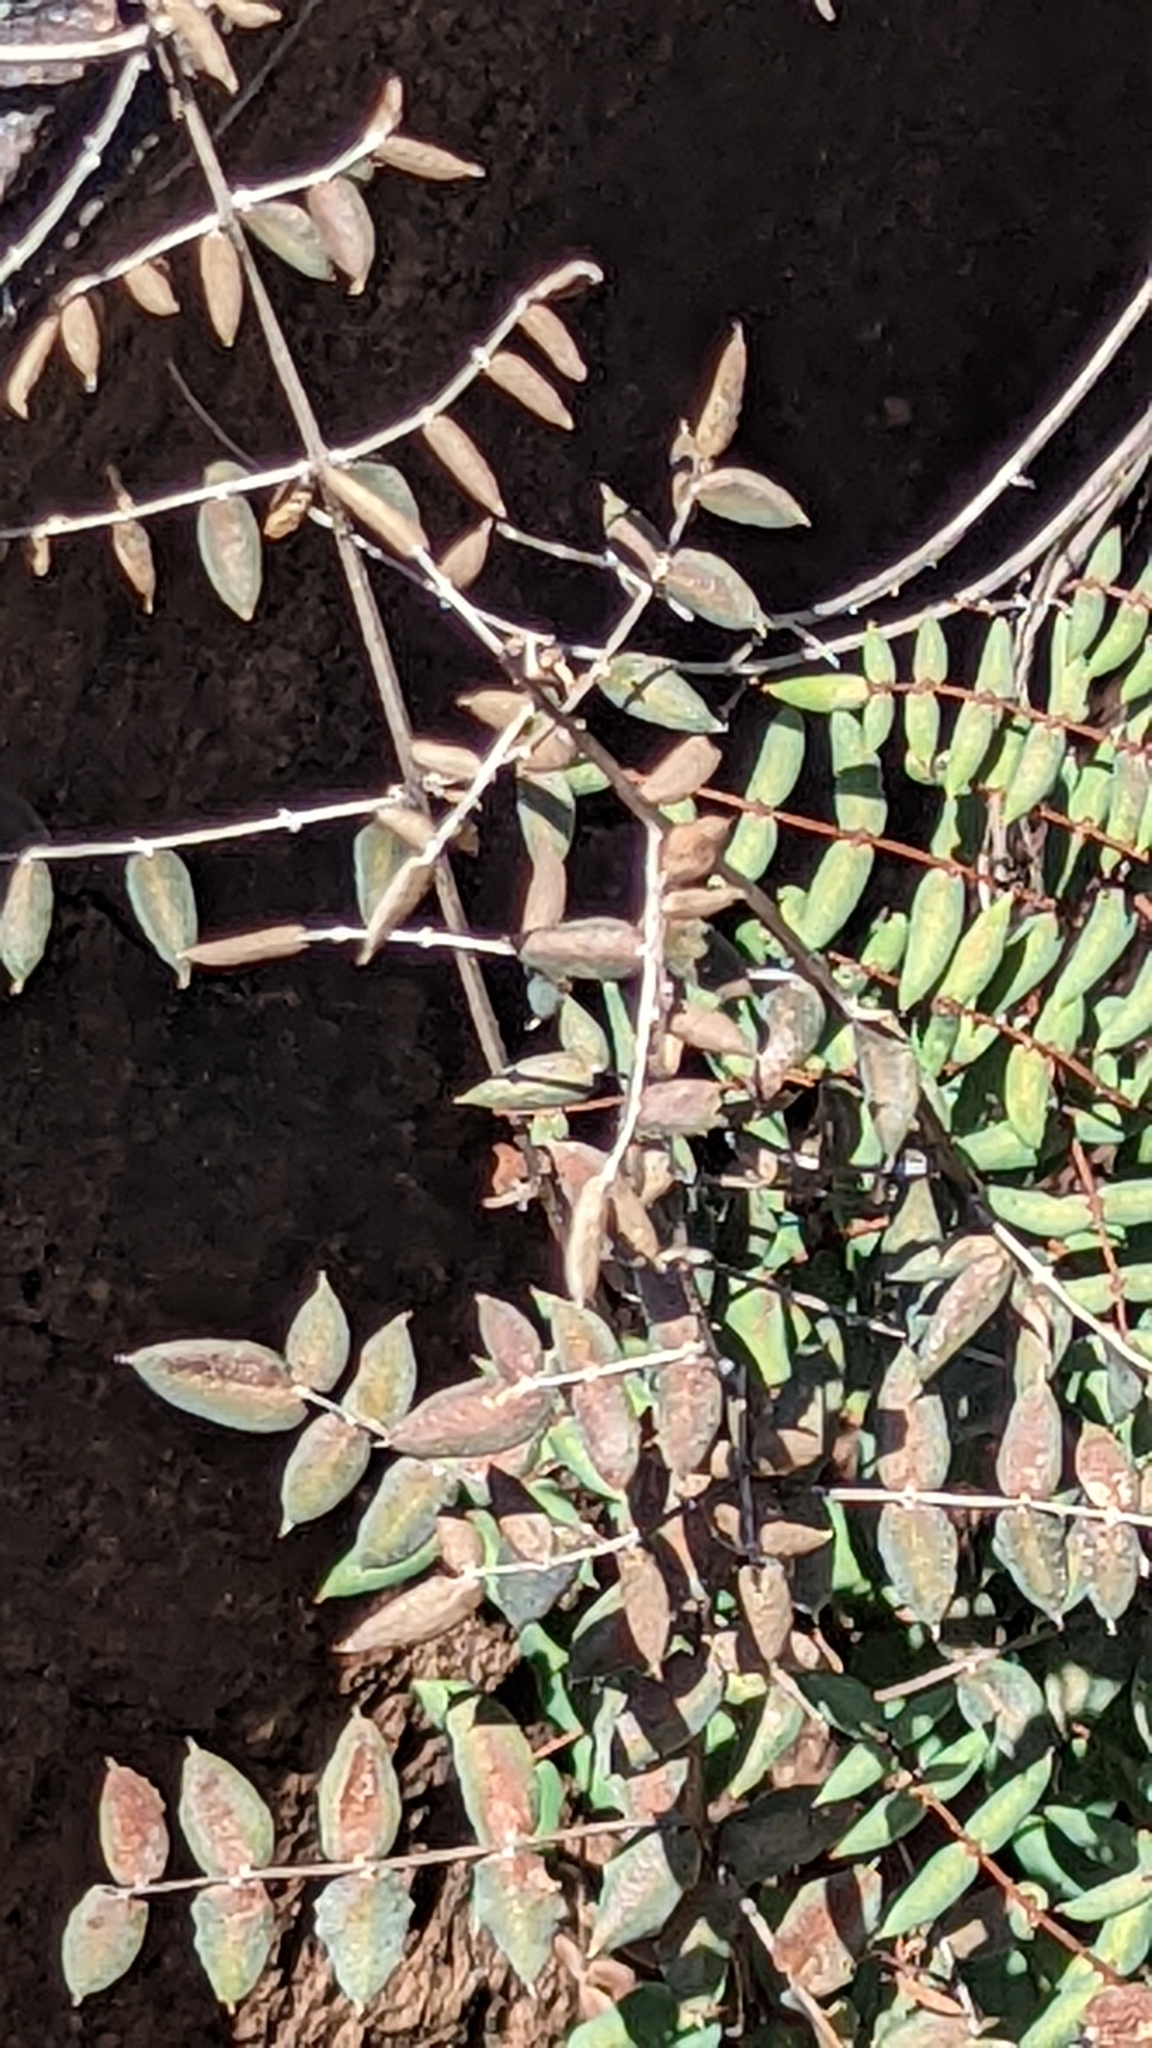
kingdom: Plantae
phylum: Tracheophyta
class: Polypodiopsida
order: Polypodiales
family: Pteridaceae
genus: Pellaea
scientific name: Pellaea truncata
